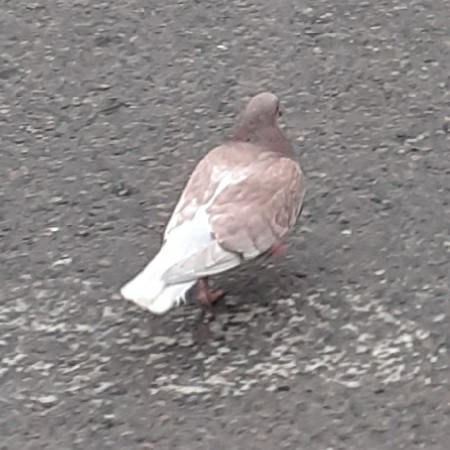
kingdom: Animalia
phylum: Chordata
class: Aves
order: Columbiformes
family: Columbidae
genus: Columba
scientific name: Columba livia
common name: Rock pigeon
